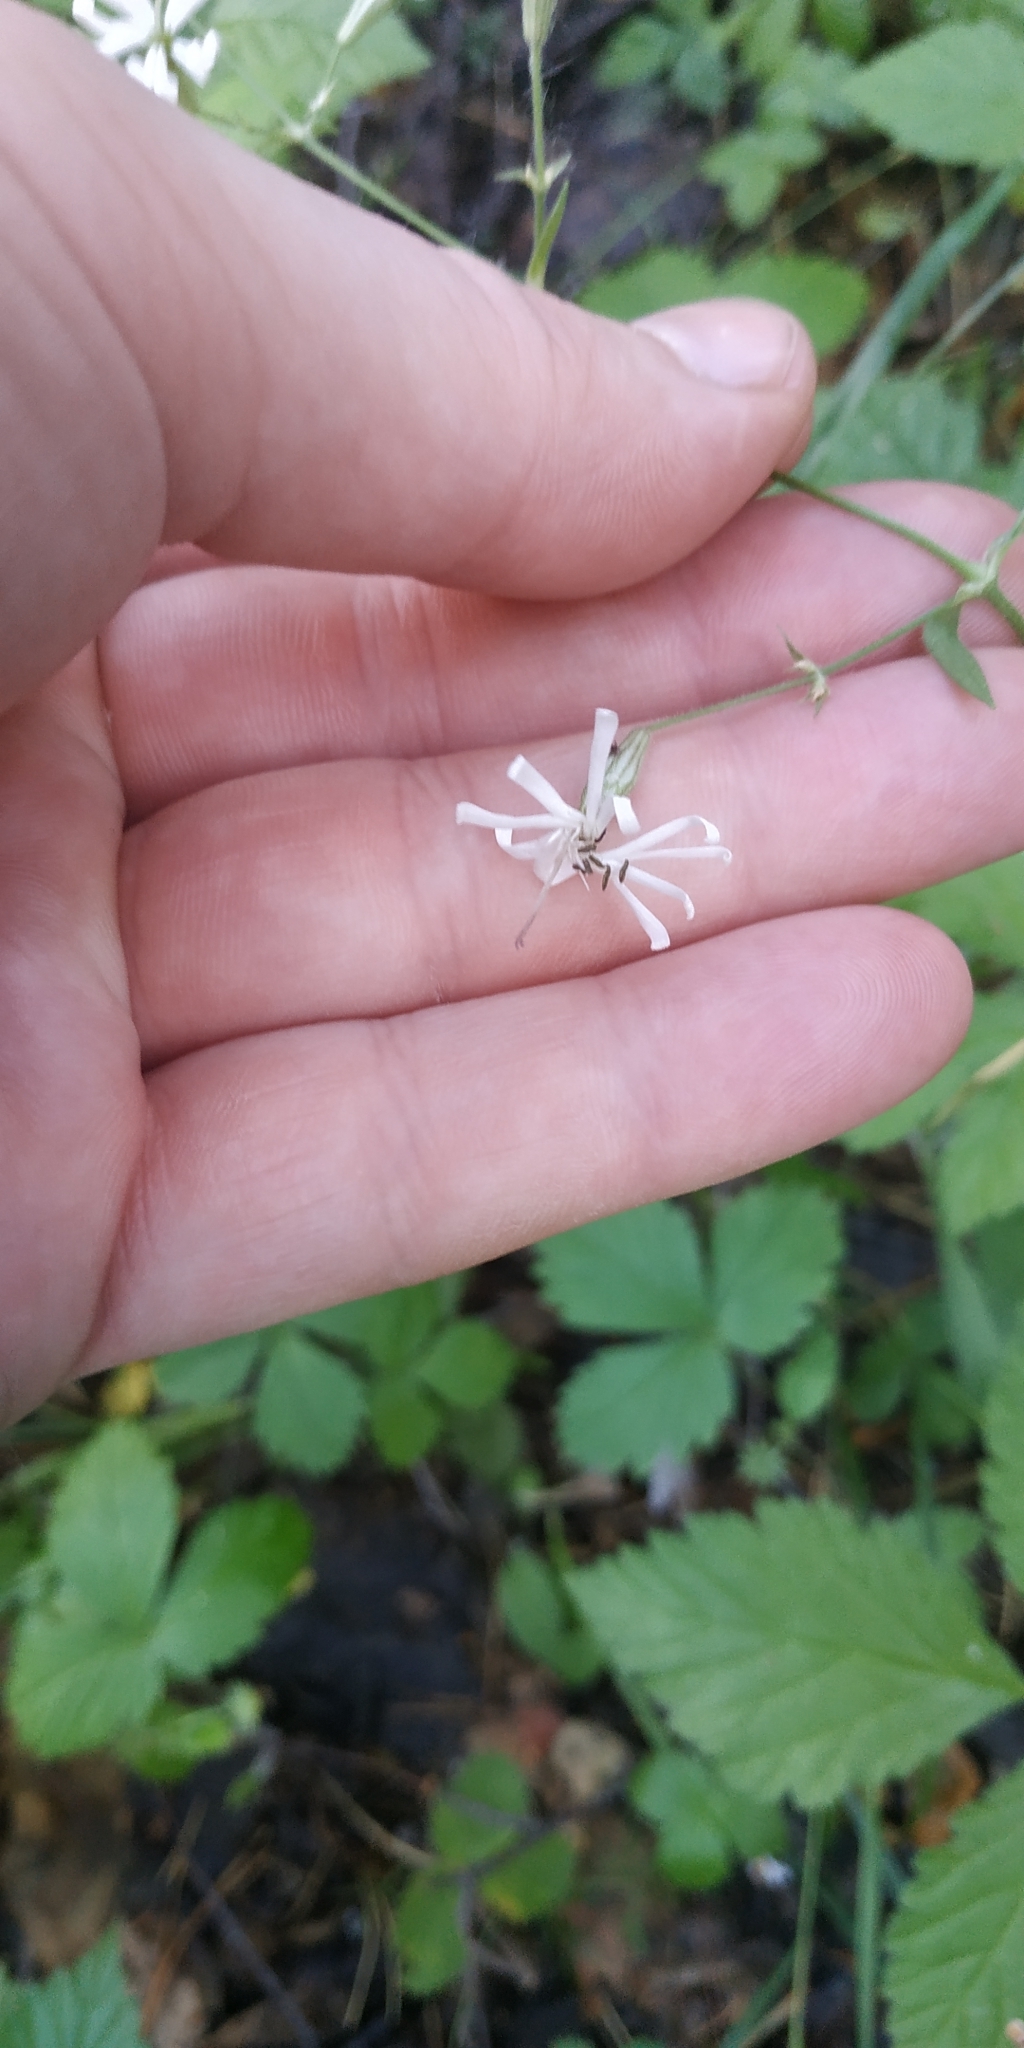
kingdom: Plantae
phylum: Tracheophyta
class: Magnoliopsida
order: Caryophyllales
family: Caryophyllaceae
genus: Silene
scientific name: Silene nutans
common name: Nottingham catchfly
